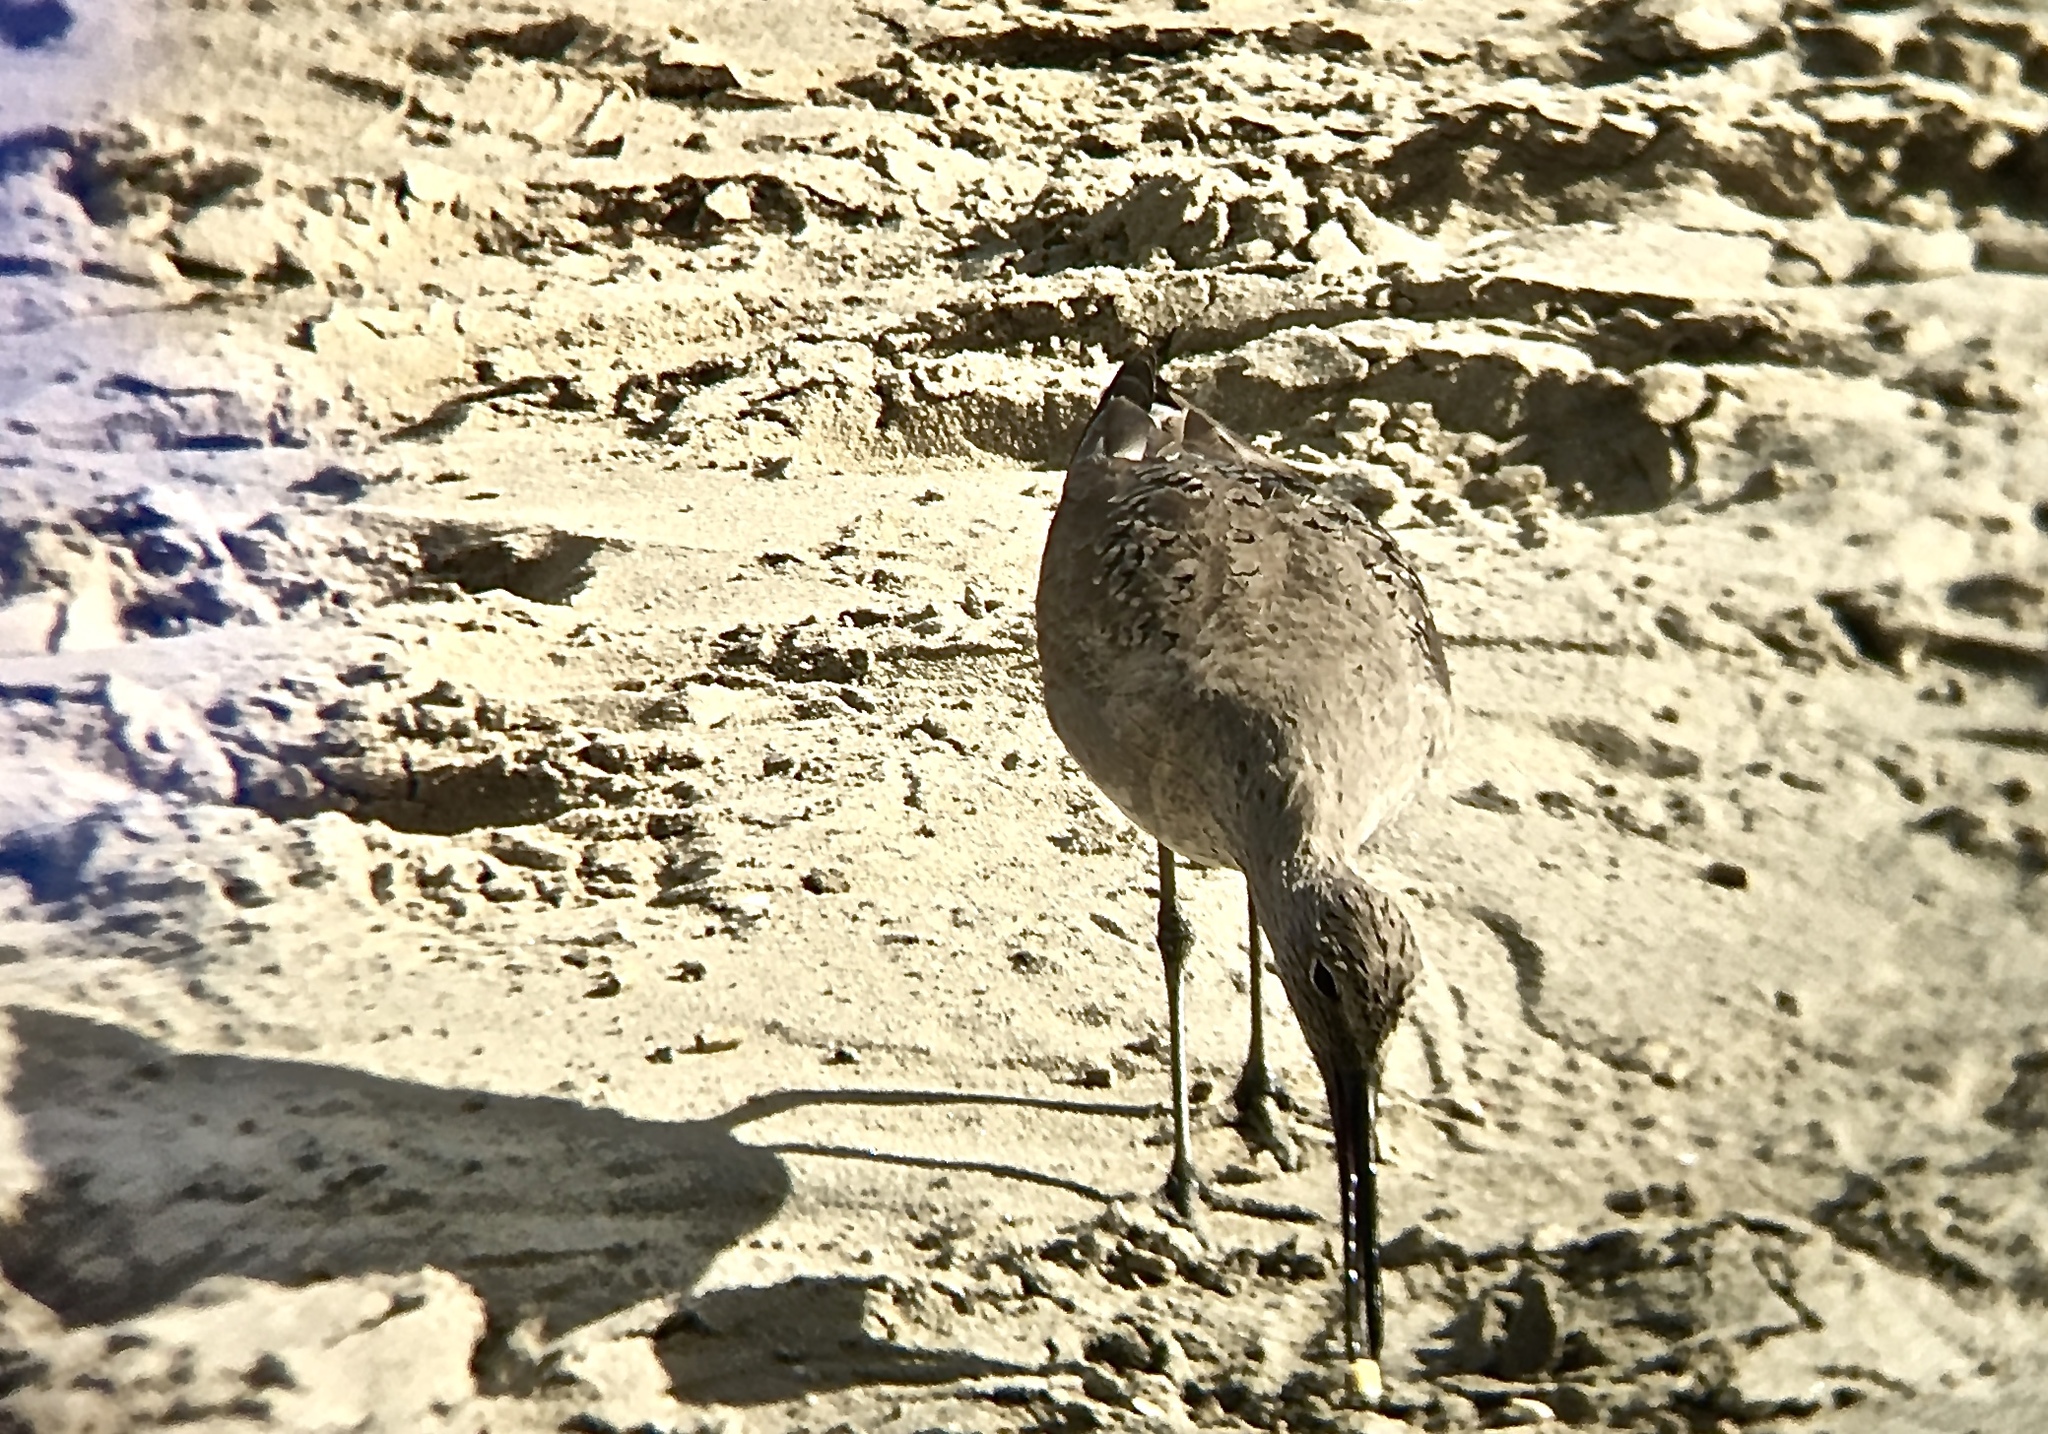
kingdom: Animalia
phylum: Chordata
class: Aves
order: Charadriiformes
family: Scolopacidae
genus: Tringa
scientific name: Tringa semipalmata
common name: Willet
